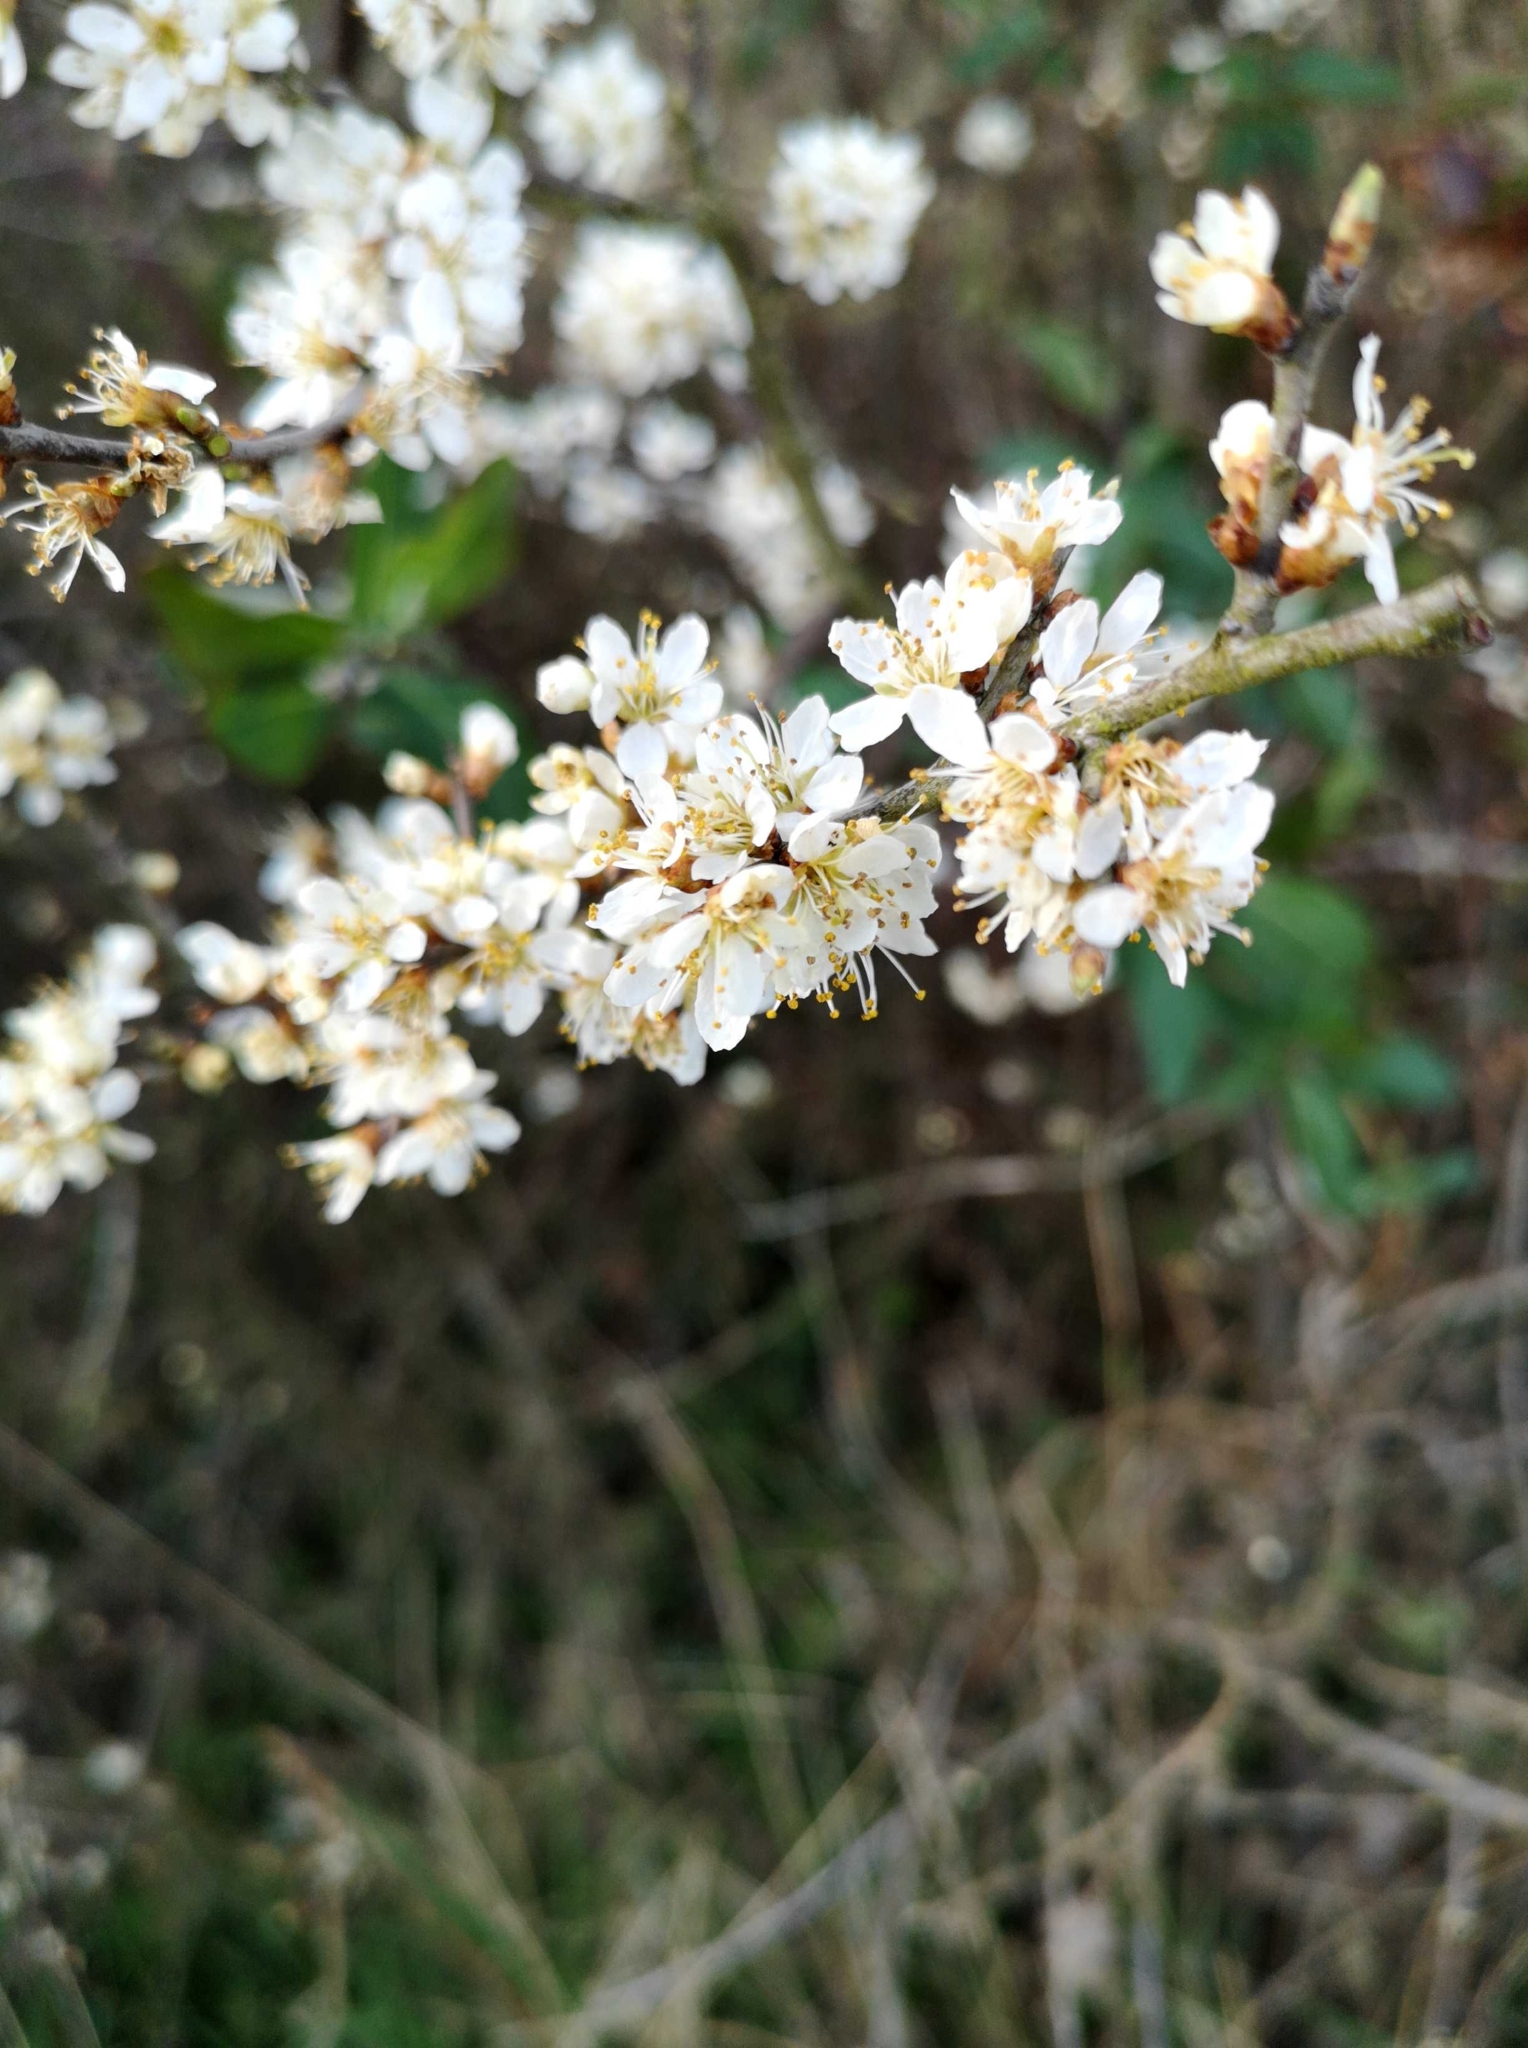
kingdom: Plantae
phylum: Tracheophyta
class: Magnoliopsida
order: Rosales
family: Rosaceae
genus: Prunus
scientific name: Prunus spinosa
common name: Blackthorn
